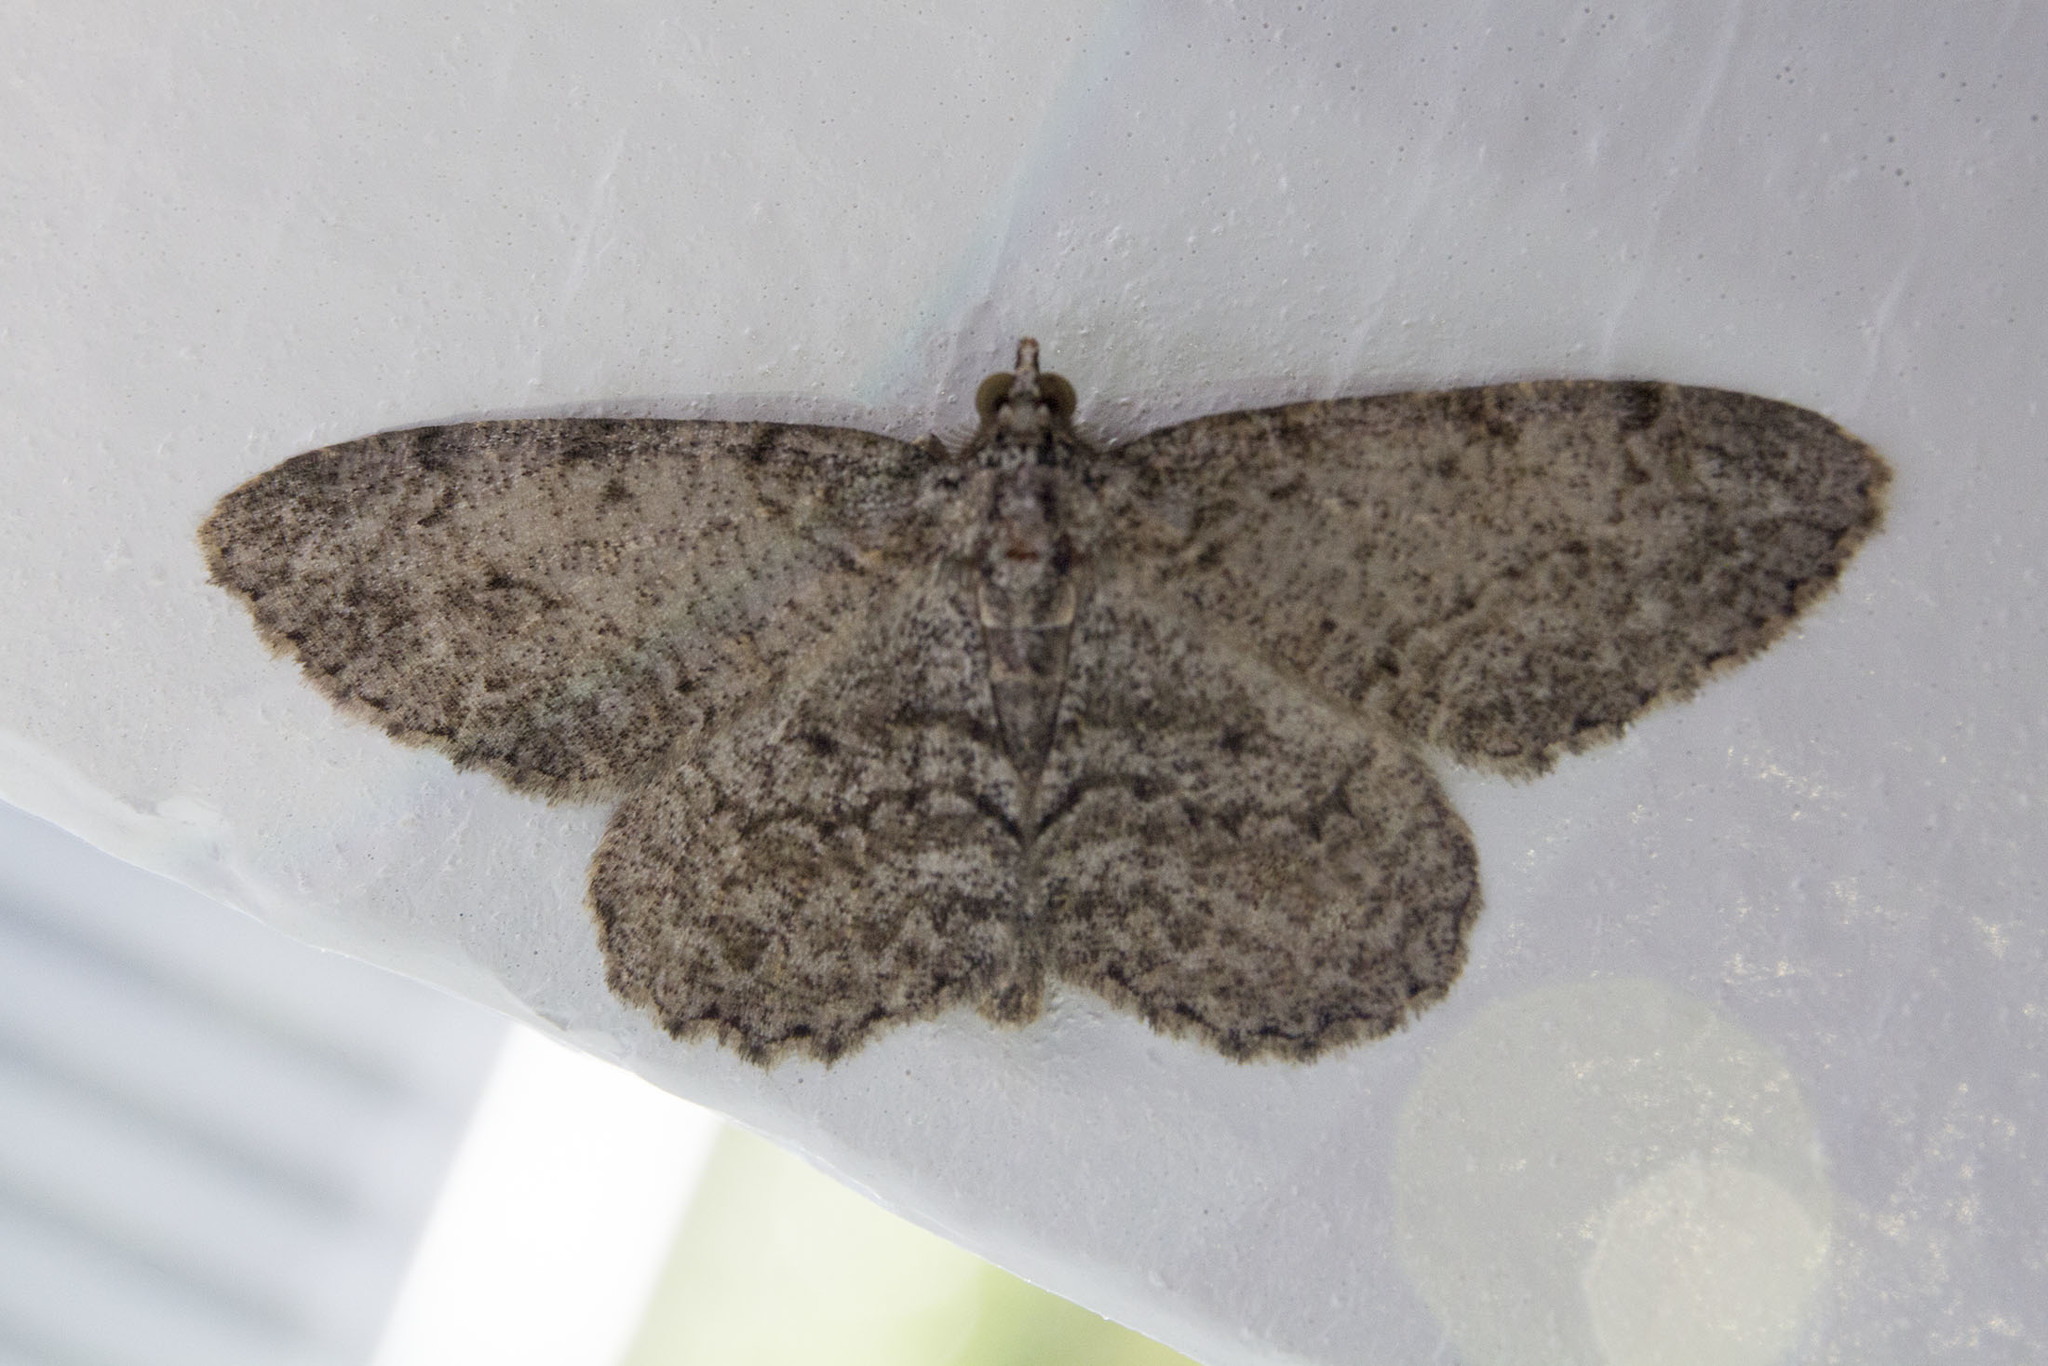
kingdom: Animalia
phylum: Arthropoda
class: Insecta
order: Lepidoptera
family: Geometridae
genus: Protoboarmia
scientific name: Protoboarmia porcelaria
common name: Porcelain gray
